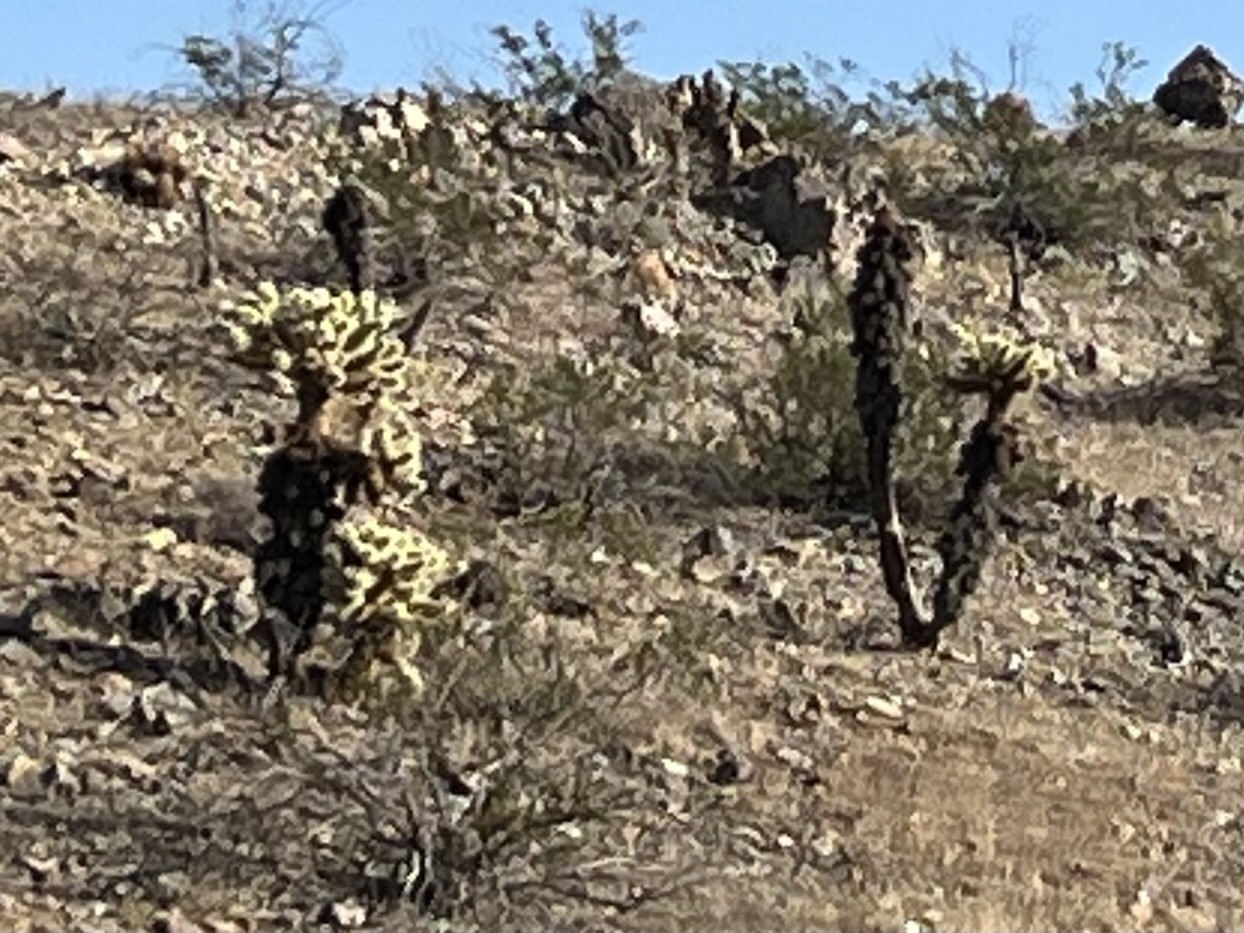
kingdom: Plantae
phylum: Tracheophyta
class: Magnoliopsida
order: Caryophyllales
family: Cactaceae
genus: Cylindropuntia
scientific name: Cylindropuntia fosbergii
